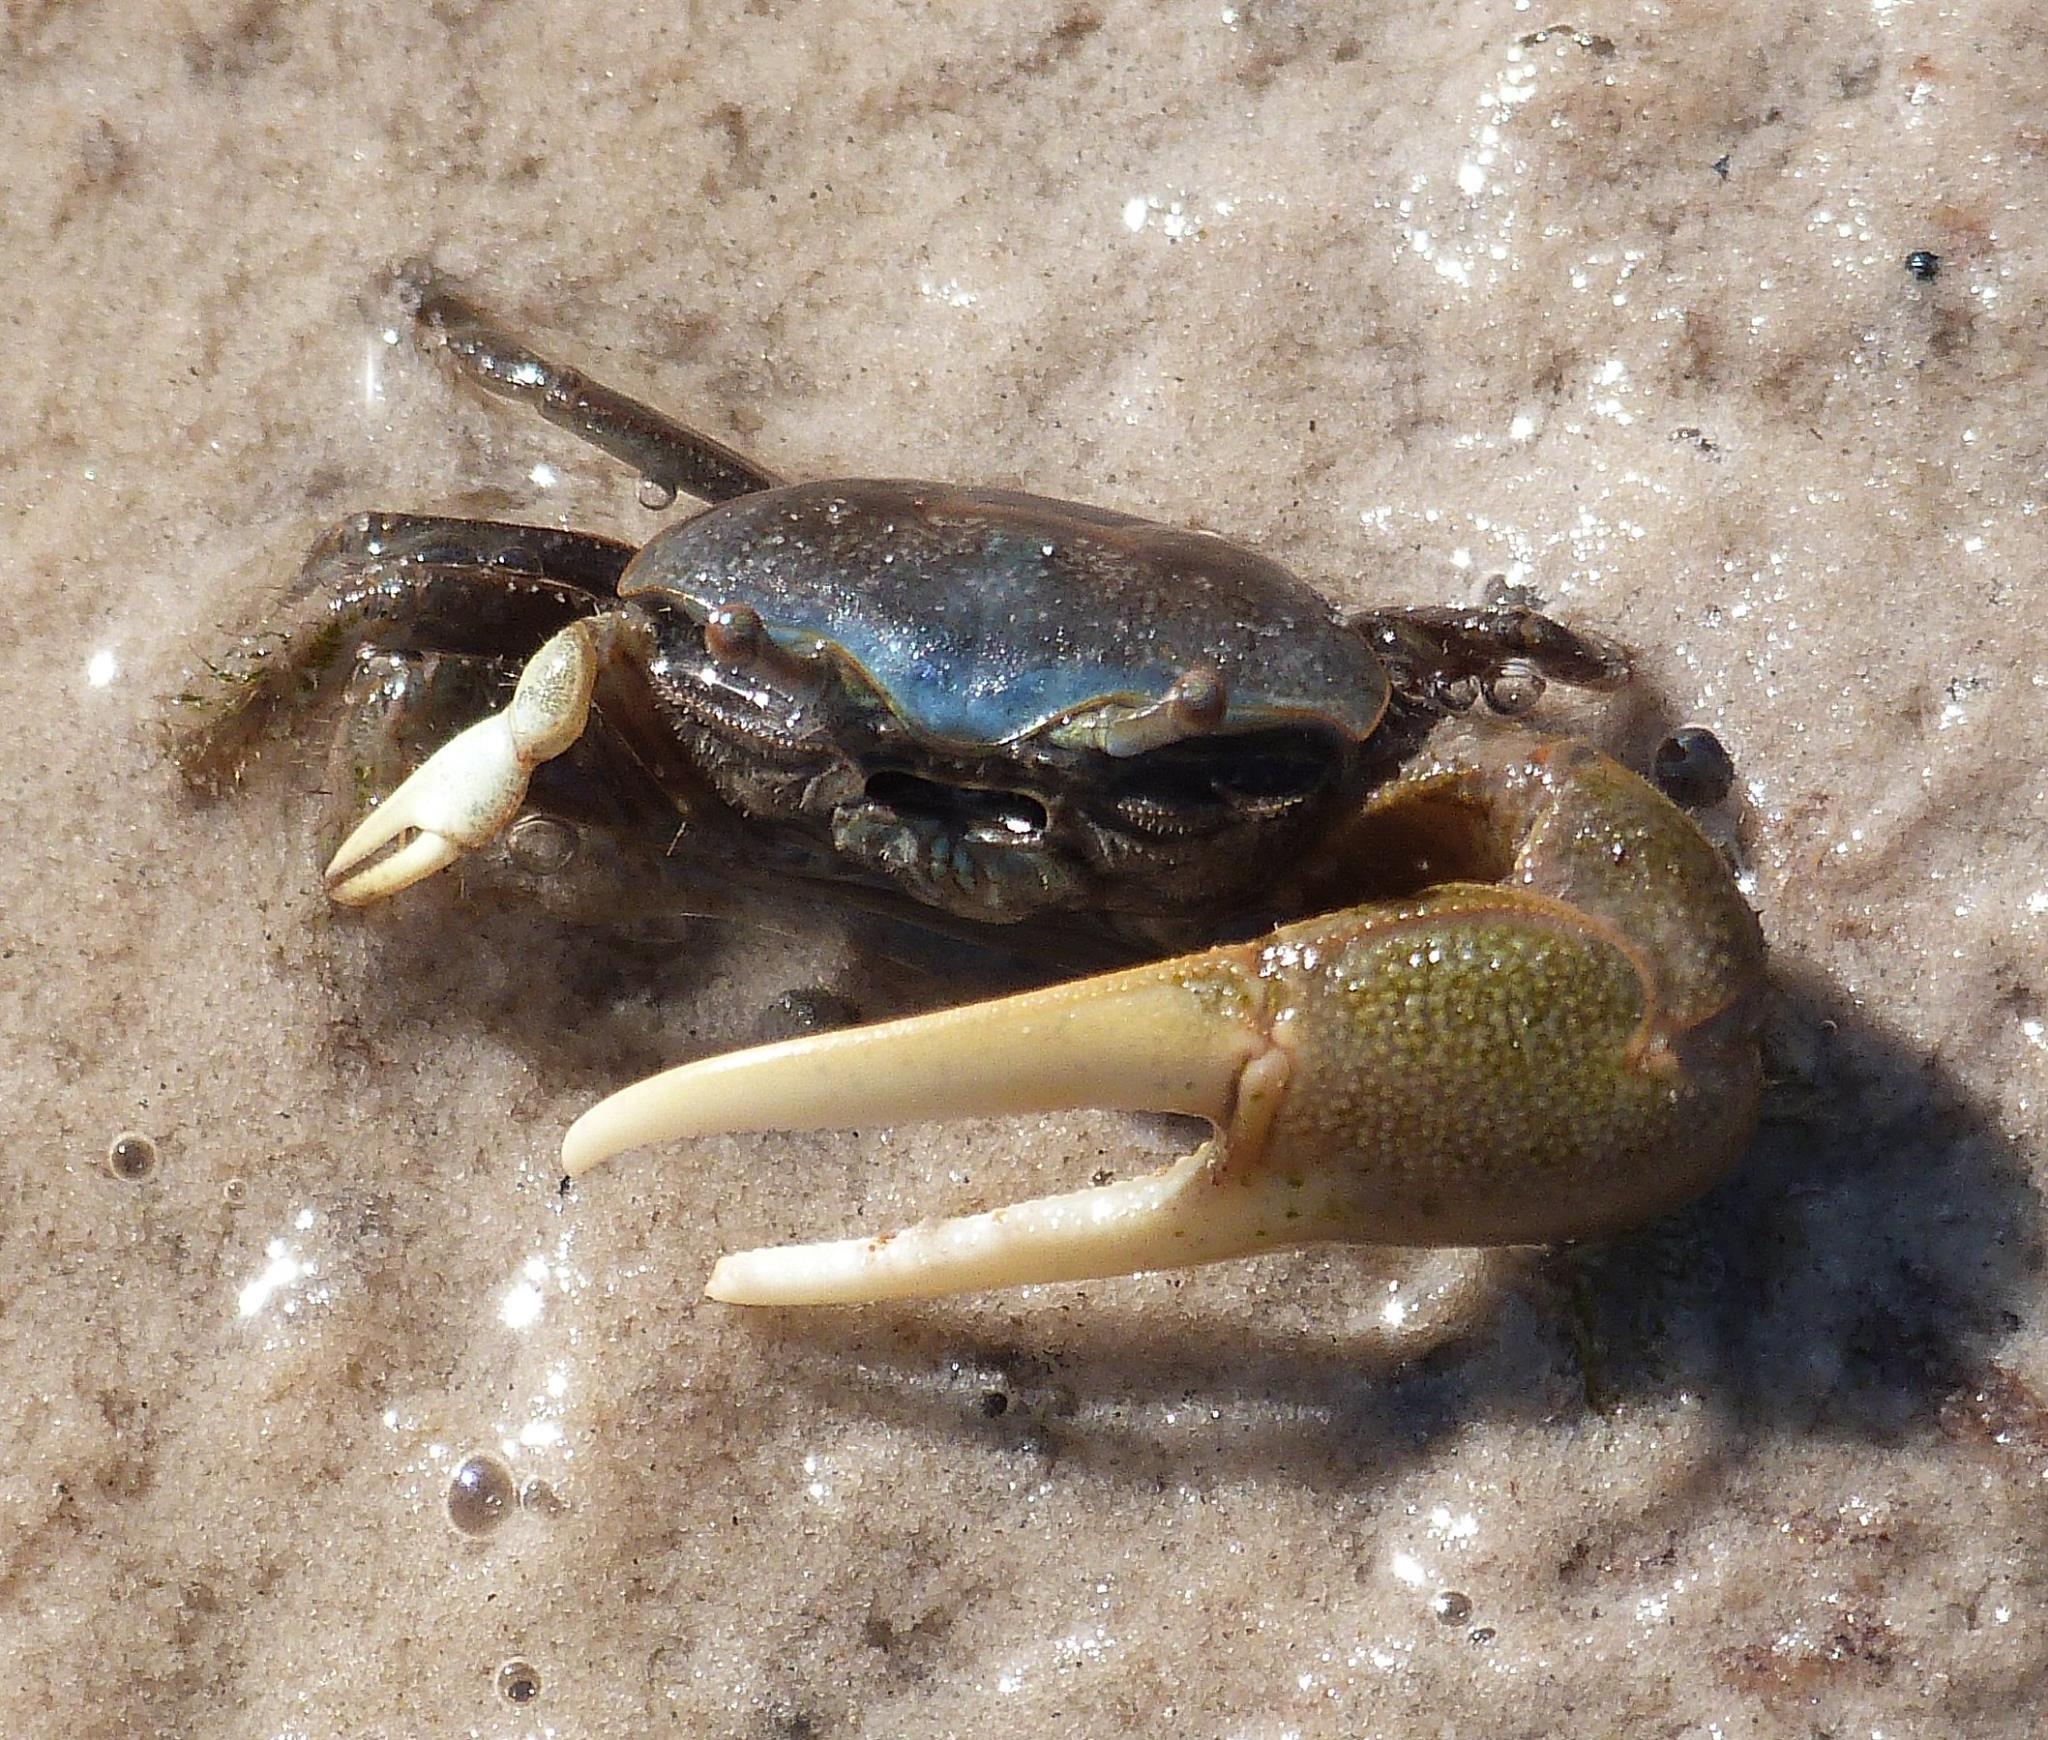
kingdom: Animalia
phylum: Arthropoda
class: Malacostraca
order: Decapoda
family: Ocypodidae
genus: Minuca
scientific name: Minuca pugnax
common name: Mud fiddler crab
